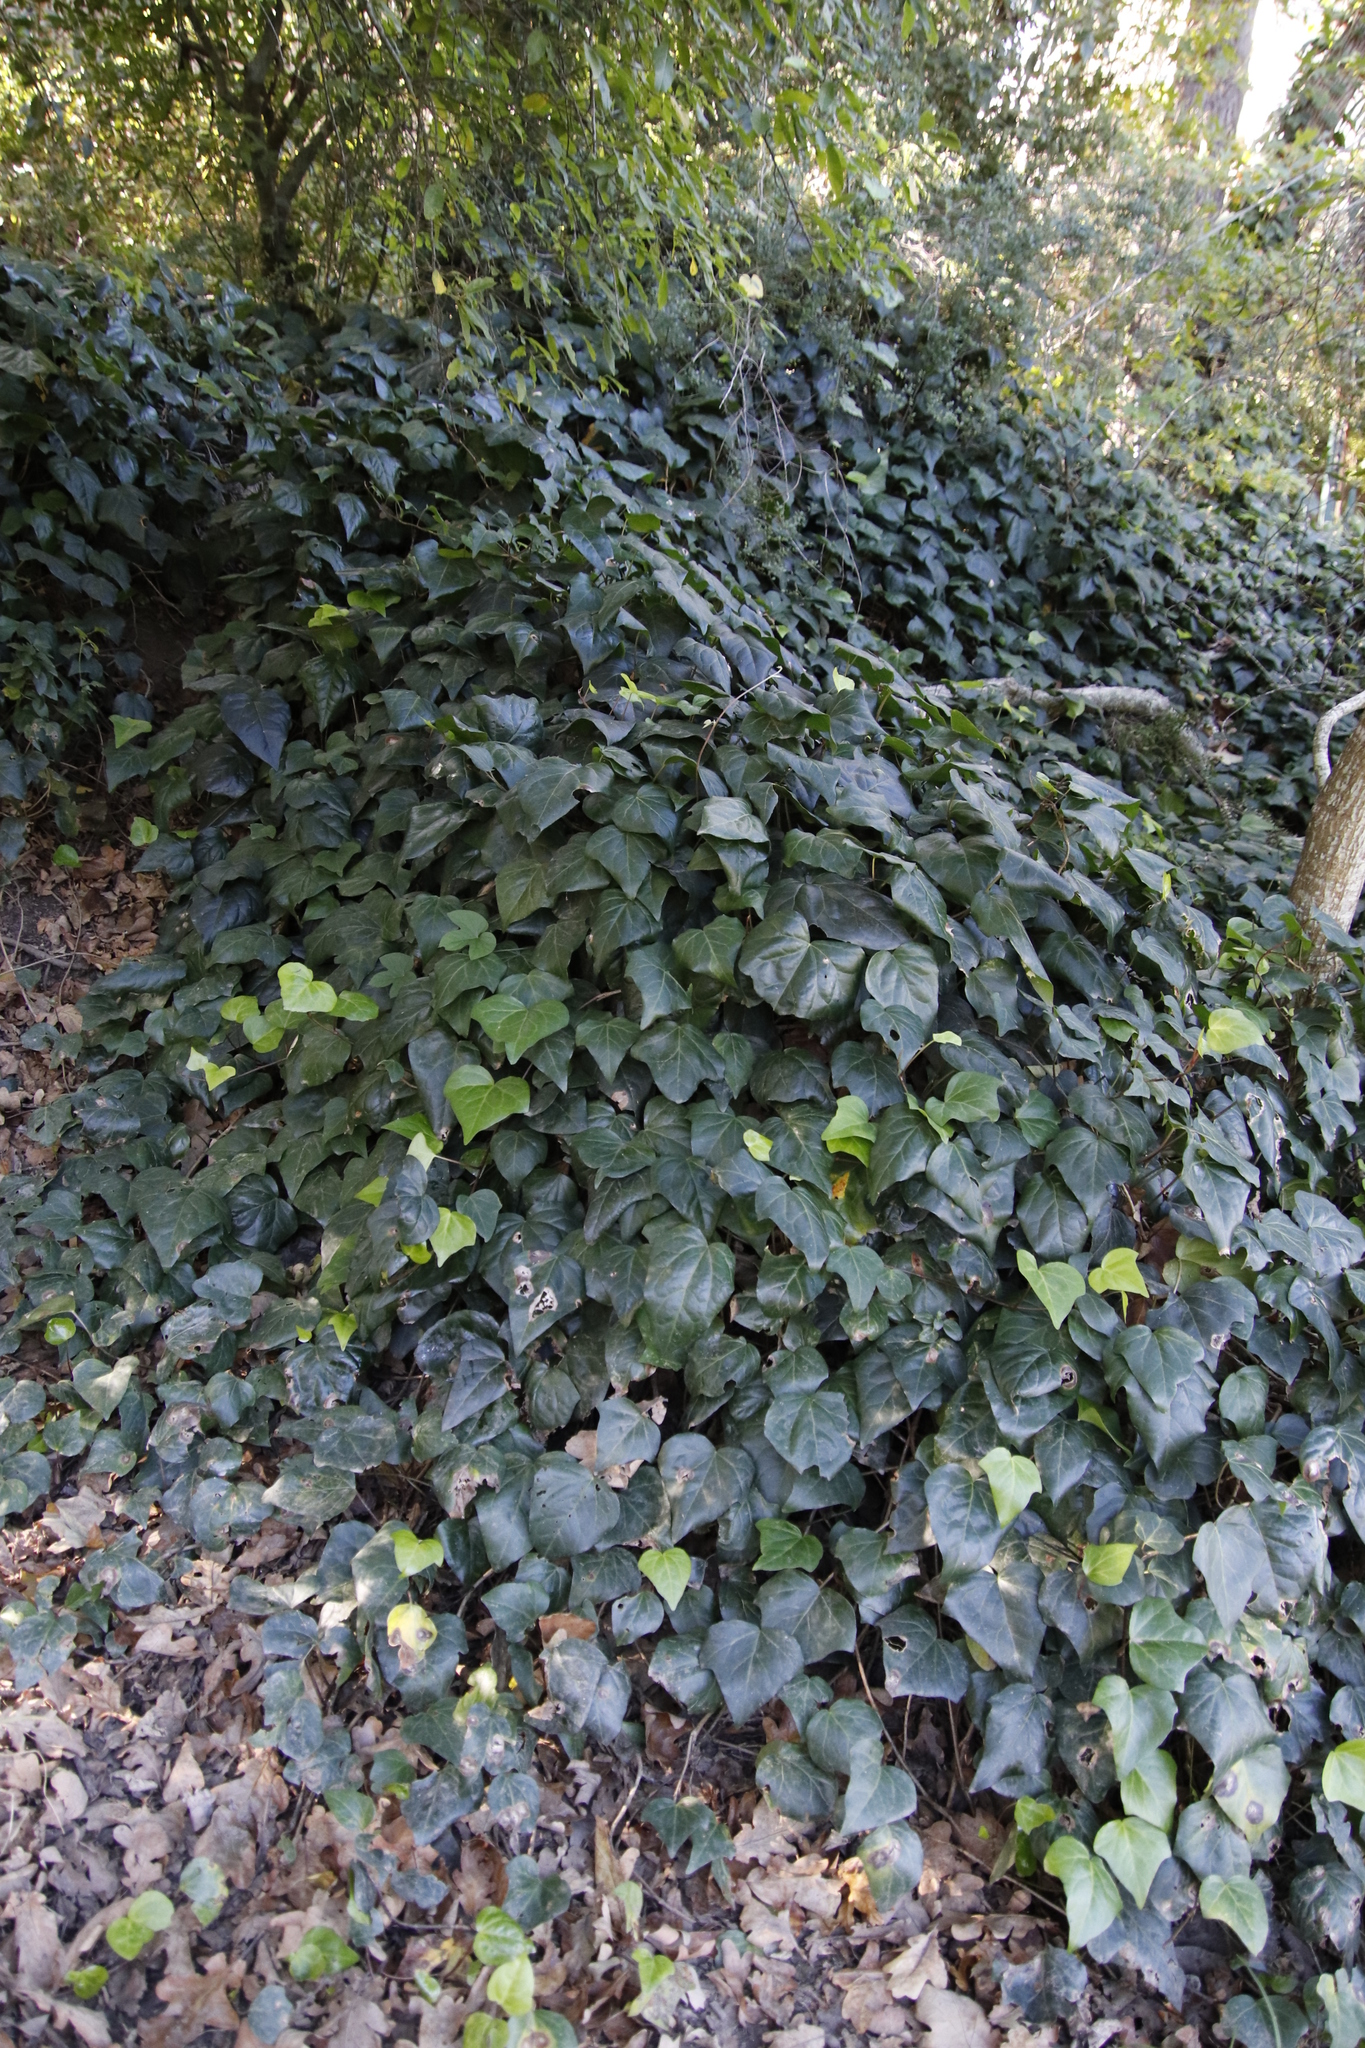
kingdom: Plantae
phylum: Tracheophyta
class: Magnoliopsida
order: Apiales
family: Araliaceae
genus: Hedera
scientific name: Hedera canariensis
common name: Madeira ivy
